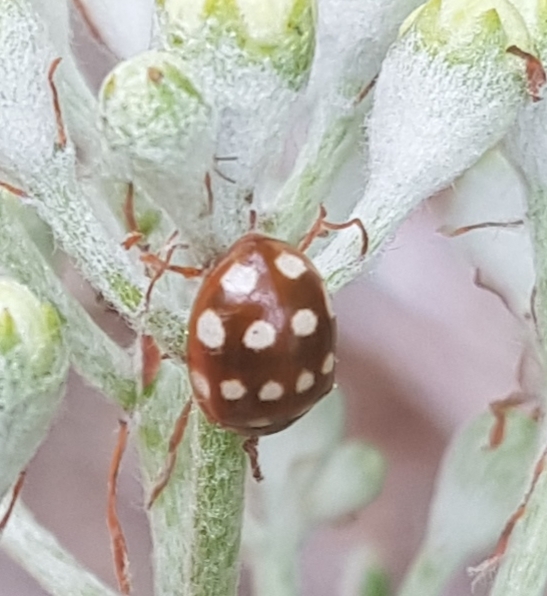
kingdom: Animalia
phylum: Arthropoda
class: Insecta
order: Coleoptera
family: Coccinellidae
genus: Calvia
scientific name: Calvia quatuordecimguttata
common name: Cream-spot ladybird
